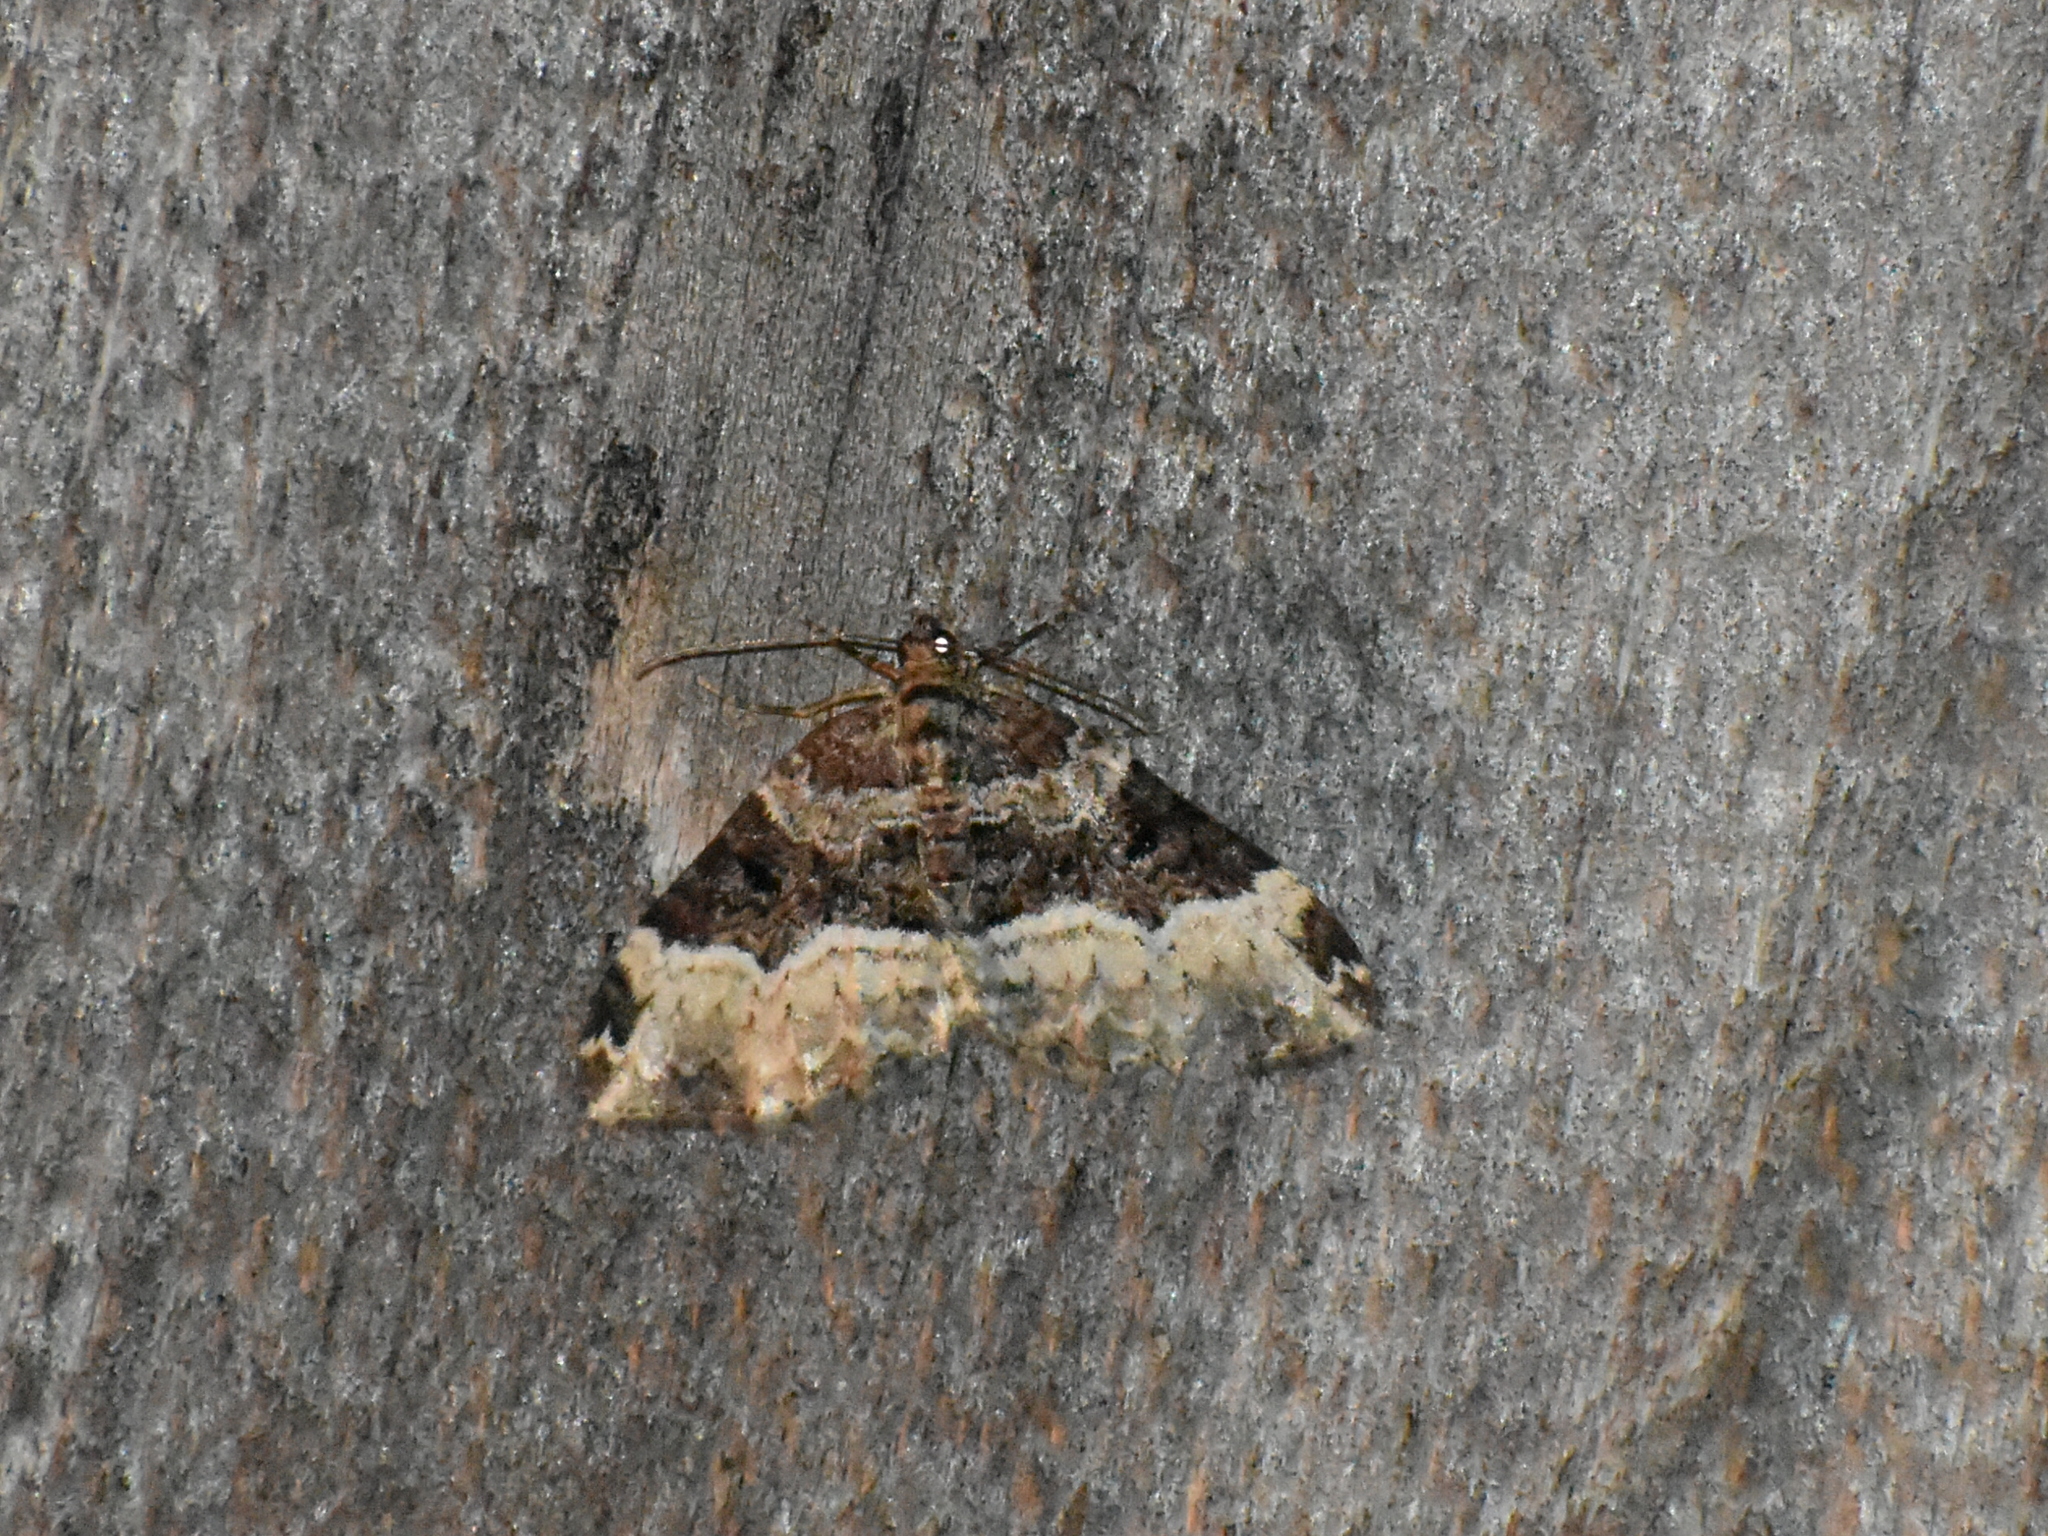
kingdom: Animalia
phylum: Arthropoda
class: Insecta
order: Lepidoptera
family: Geometridae
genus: Euphyia
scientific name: Euphyia intermediata
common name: Sharp-angled carpet
